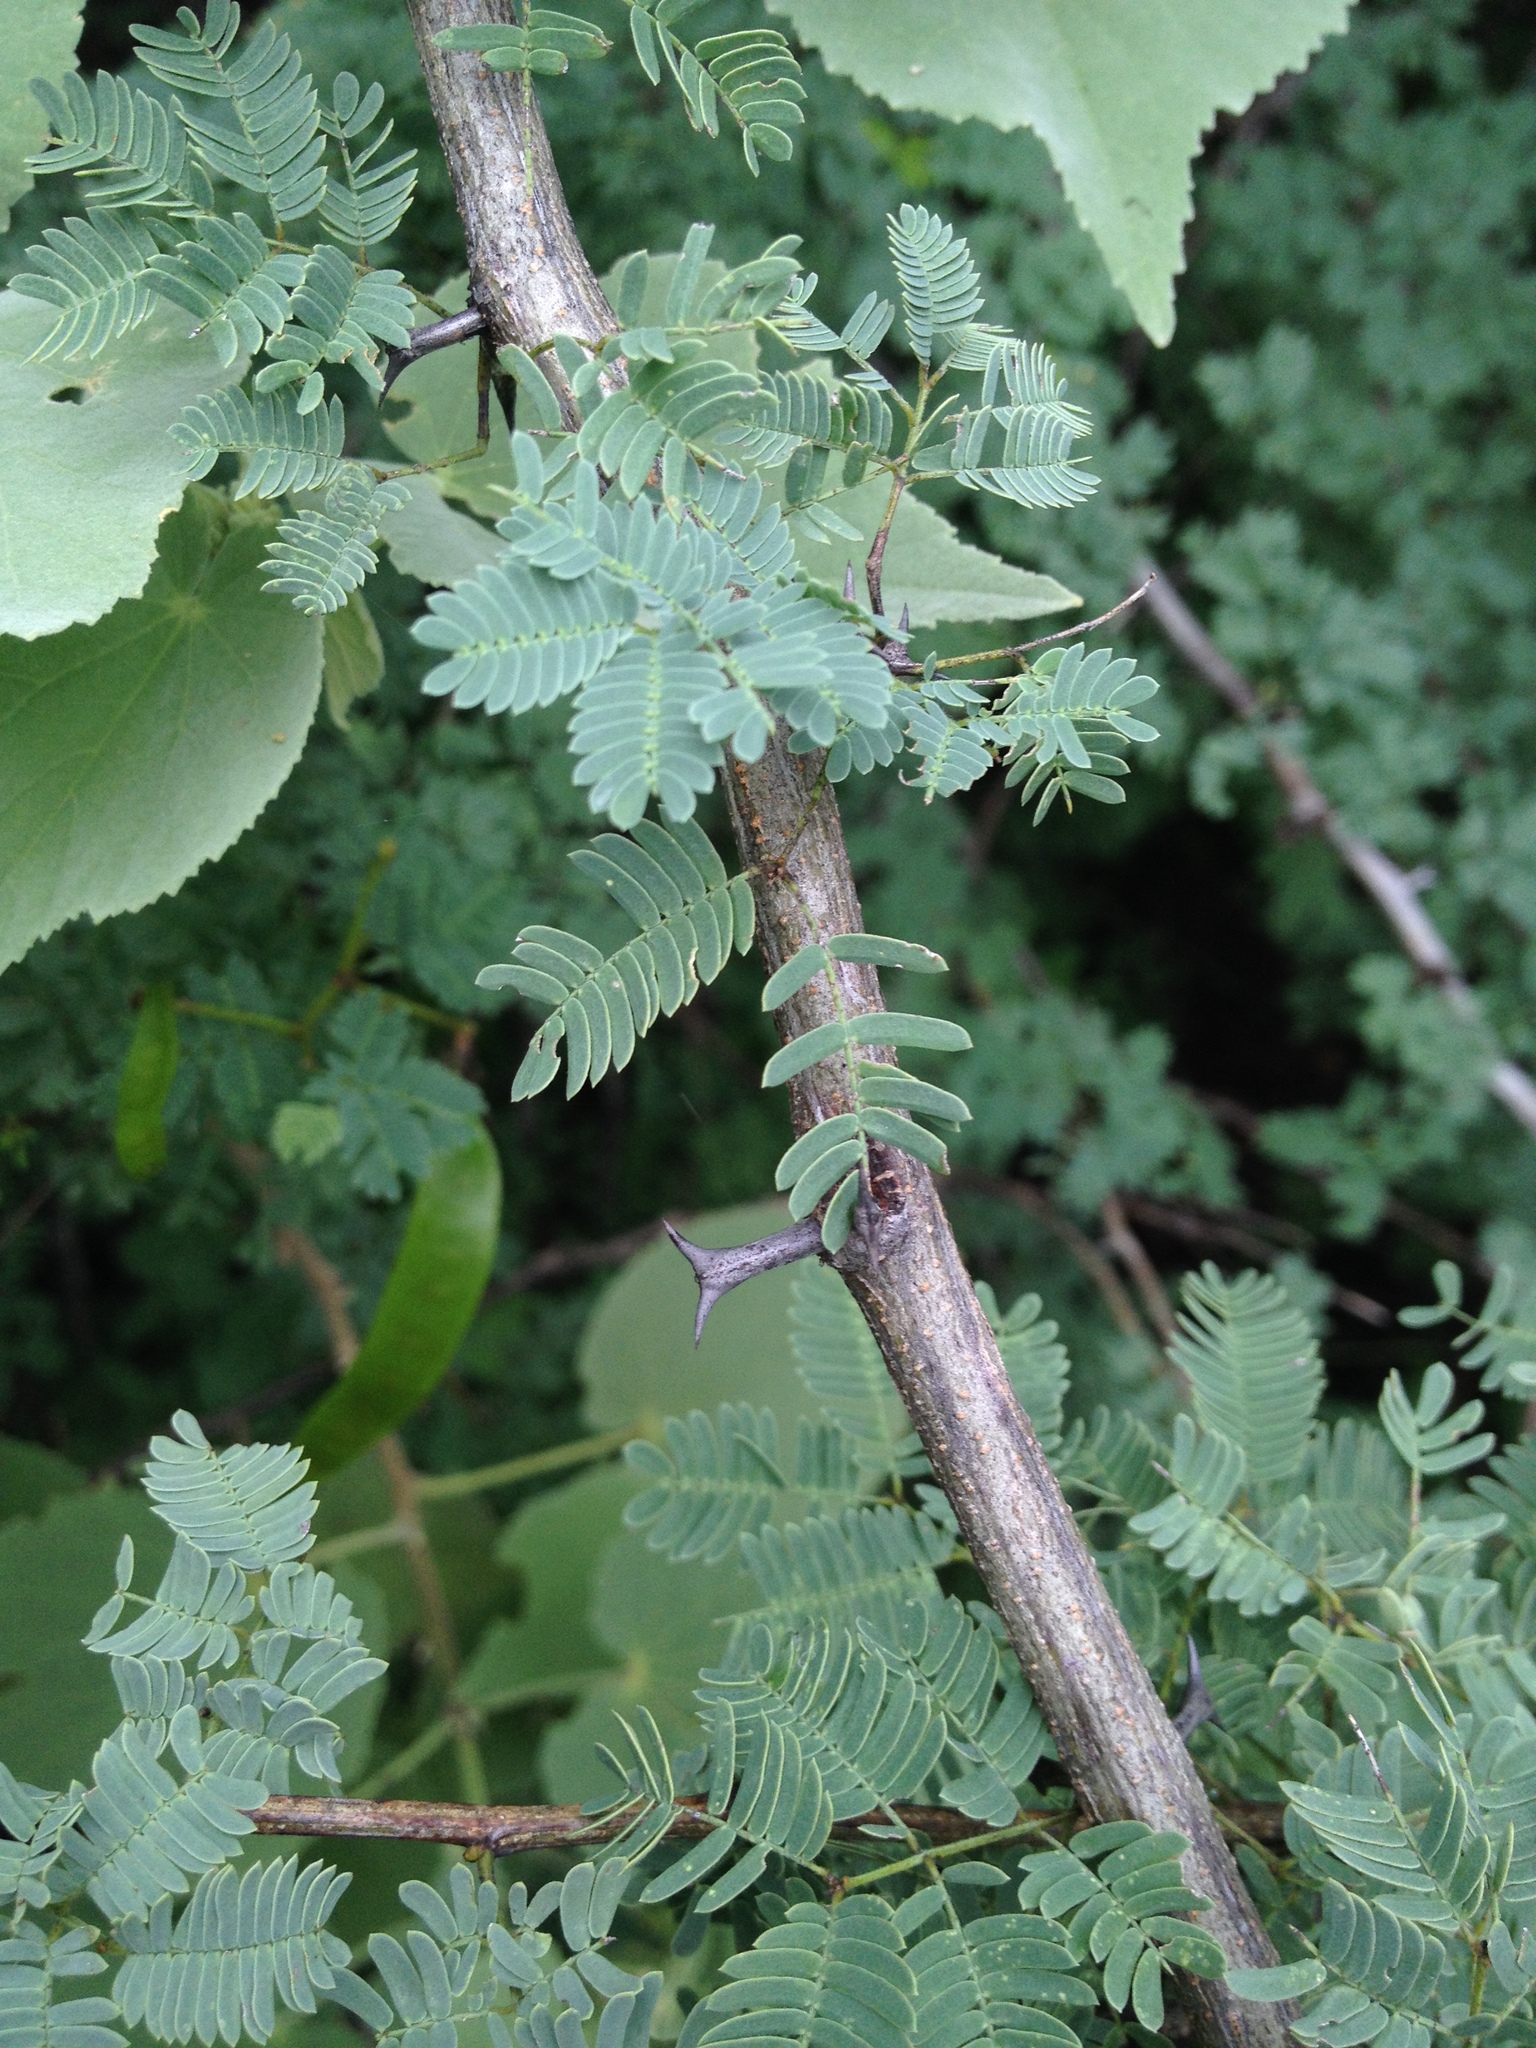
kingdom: Plantae
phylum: Tracheophyta
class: Magnoliopsida
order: Fabales
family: Fabaceae
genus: Senegalia
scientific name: Senegalia gilliesii
